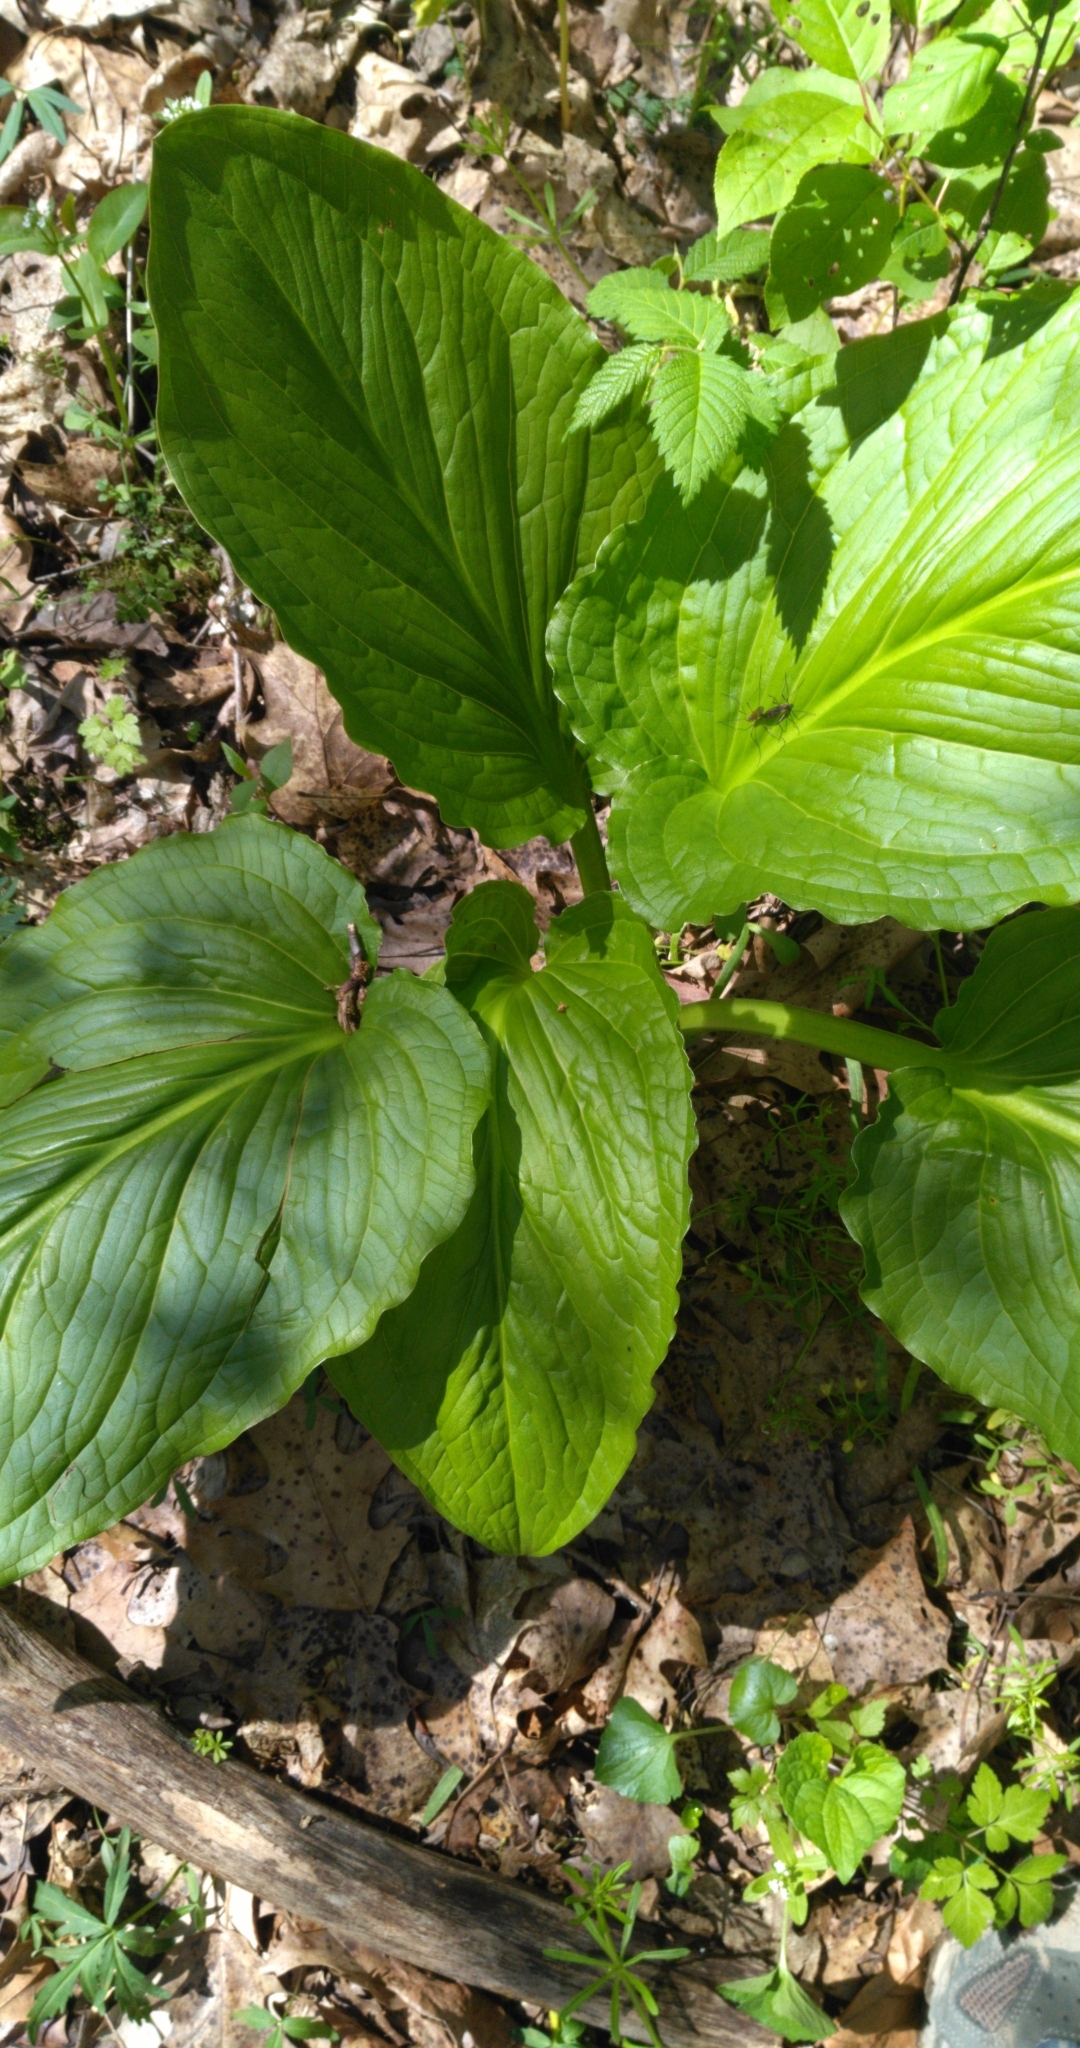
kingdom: Plantae
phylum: Tracheophyta
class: Liliopsida
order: Alismatales
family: Araceae
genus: Symplocarpus
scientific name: Symplocarpus foetidus
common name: Eastern skunk cabbage
